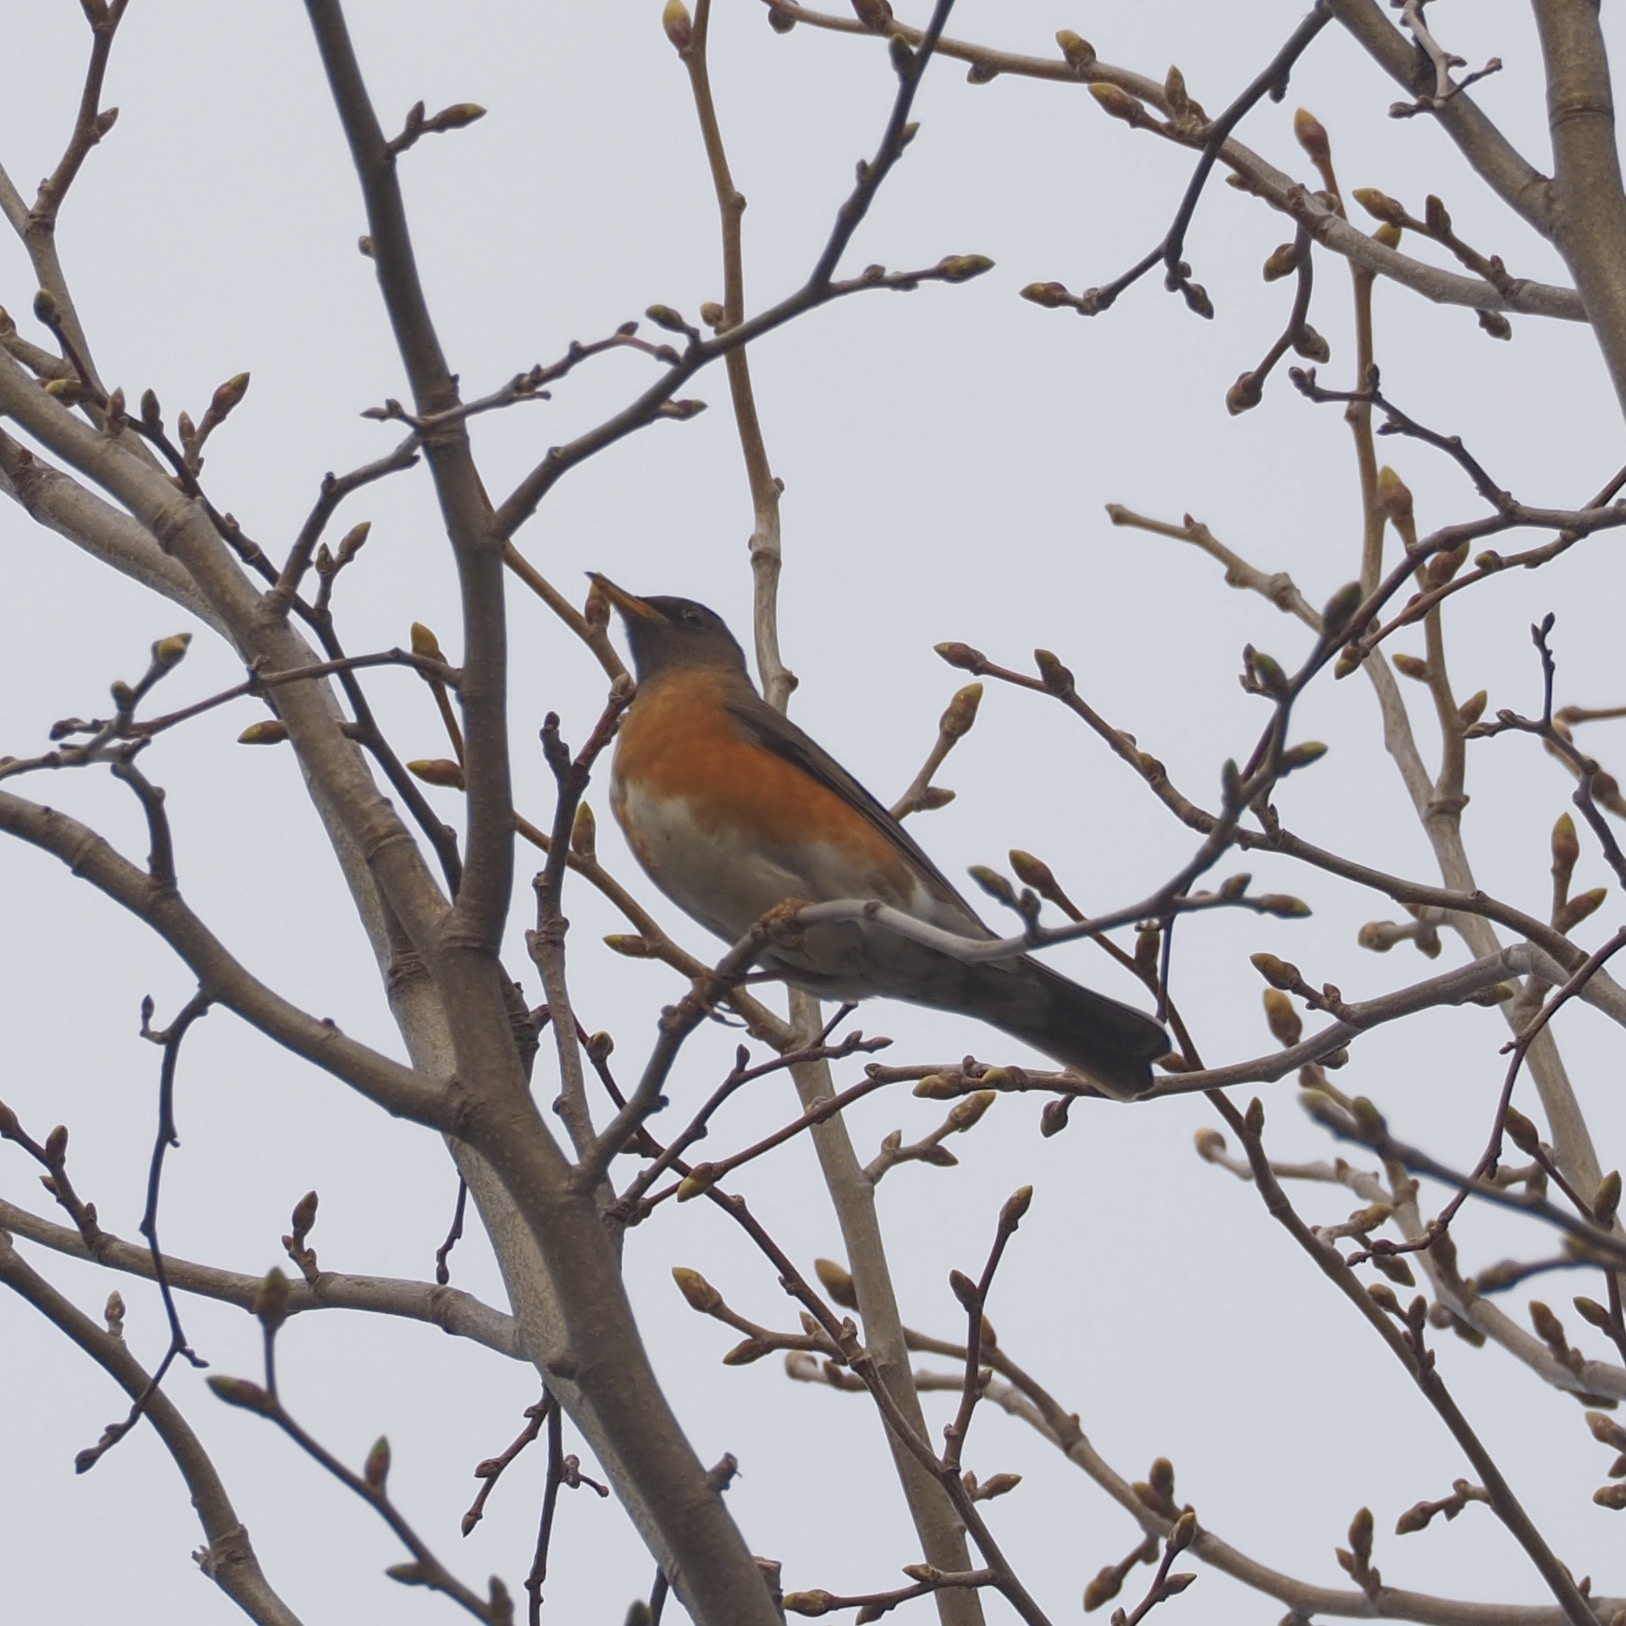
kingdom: Animalia
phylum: Chordata
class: Aves
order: Passeriformes
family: Turdidae
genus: Turdus
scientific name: Turdus chrysolaus
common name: Brown-headed thrush
